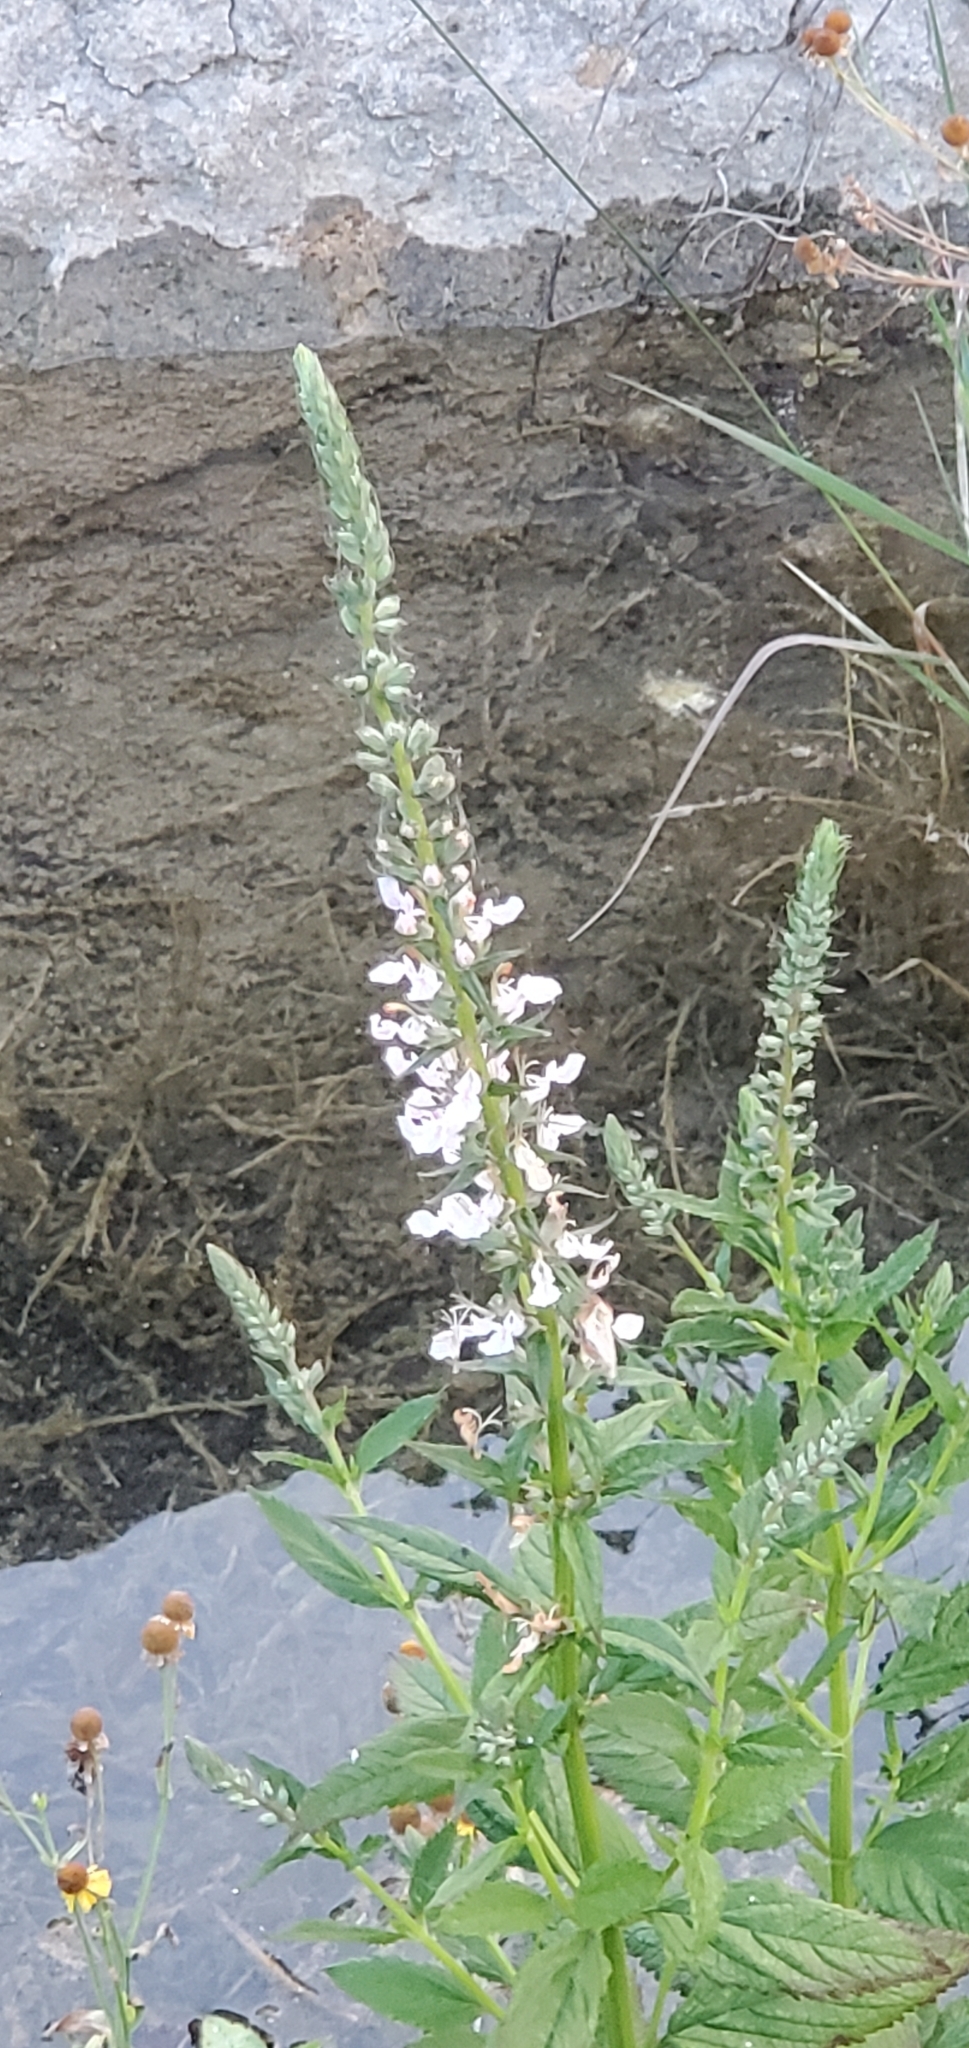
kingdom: Plantae
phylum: Tracheophyta
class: Magnoliopsida
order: Lamiales
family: Lamiaceae
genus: Teucrium
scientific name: Teucrium canadense
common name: American germander
